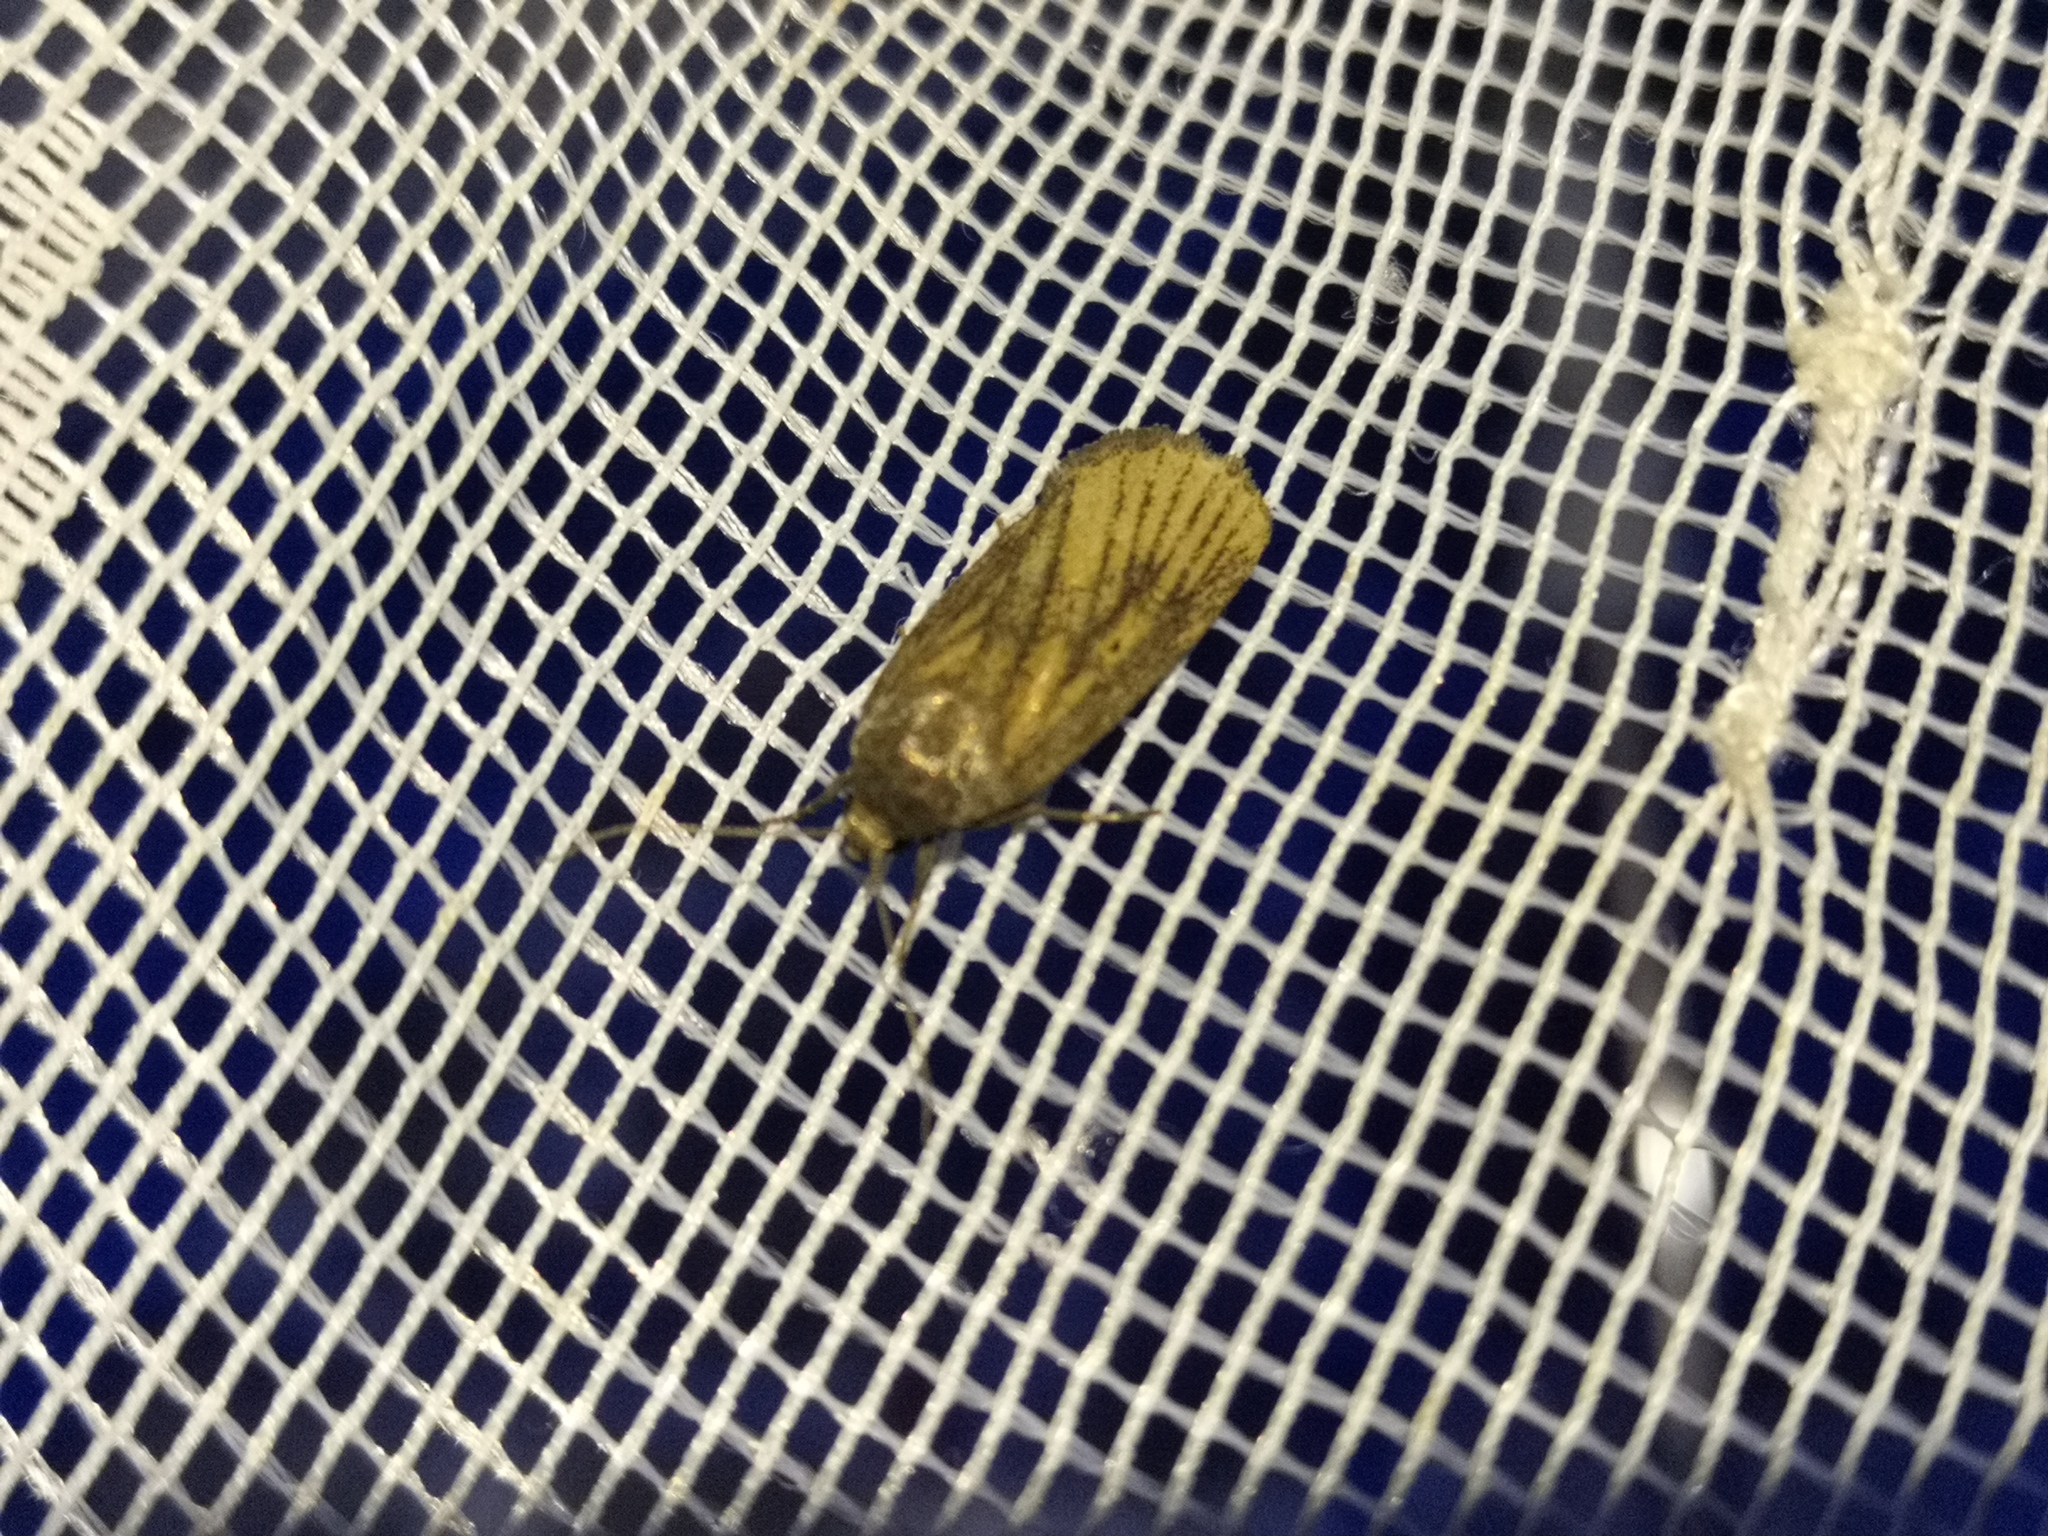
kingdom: Animalia
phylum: Arthropoda
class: Insecta
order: Lepidoptera
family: Noctuidae
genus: Athetis
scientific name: Athetis lepigone
